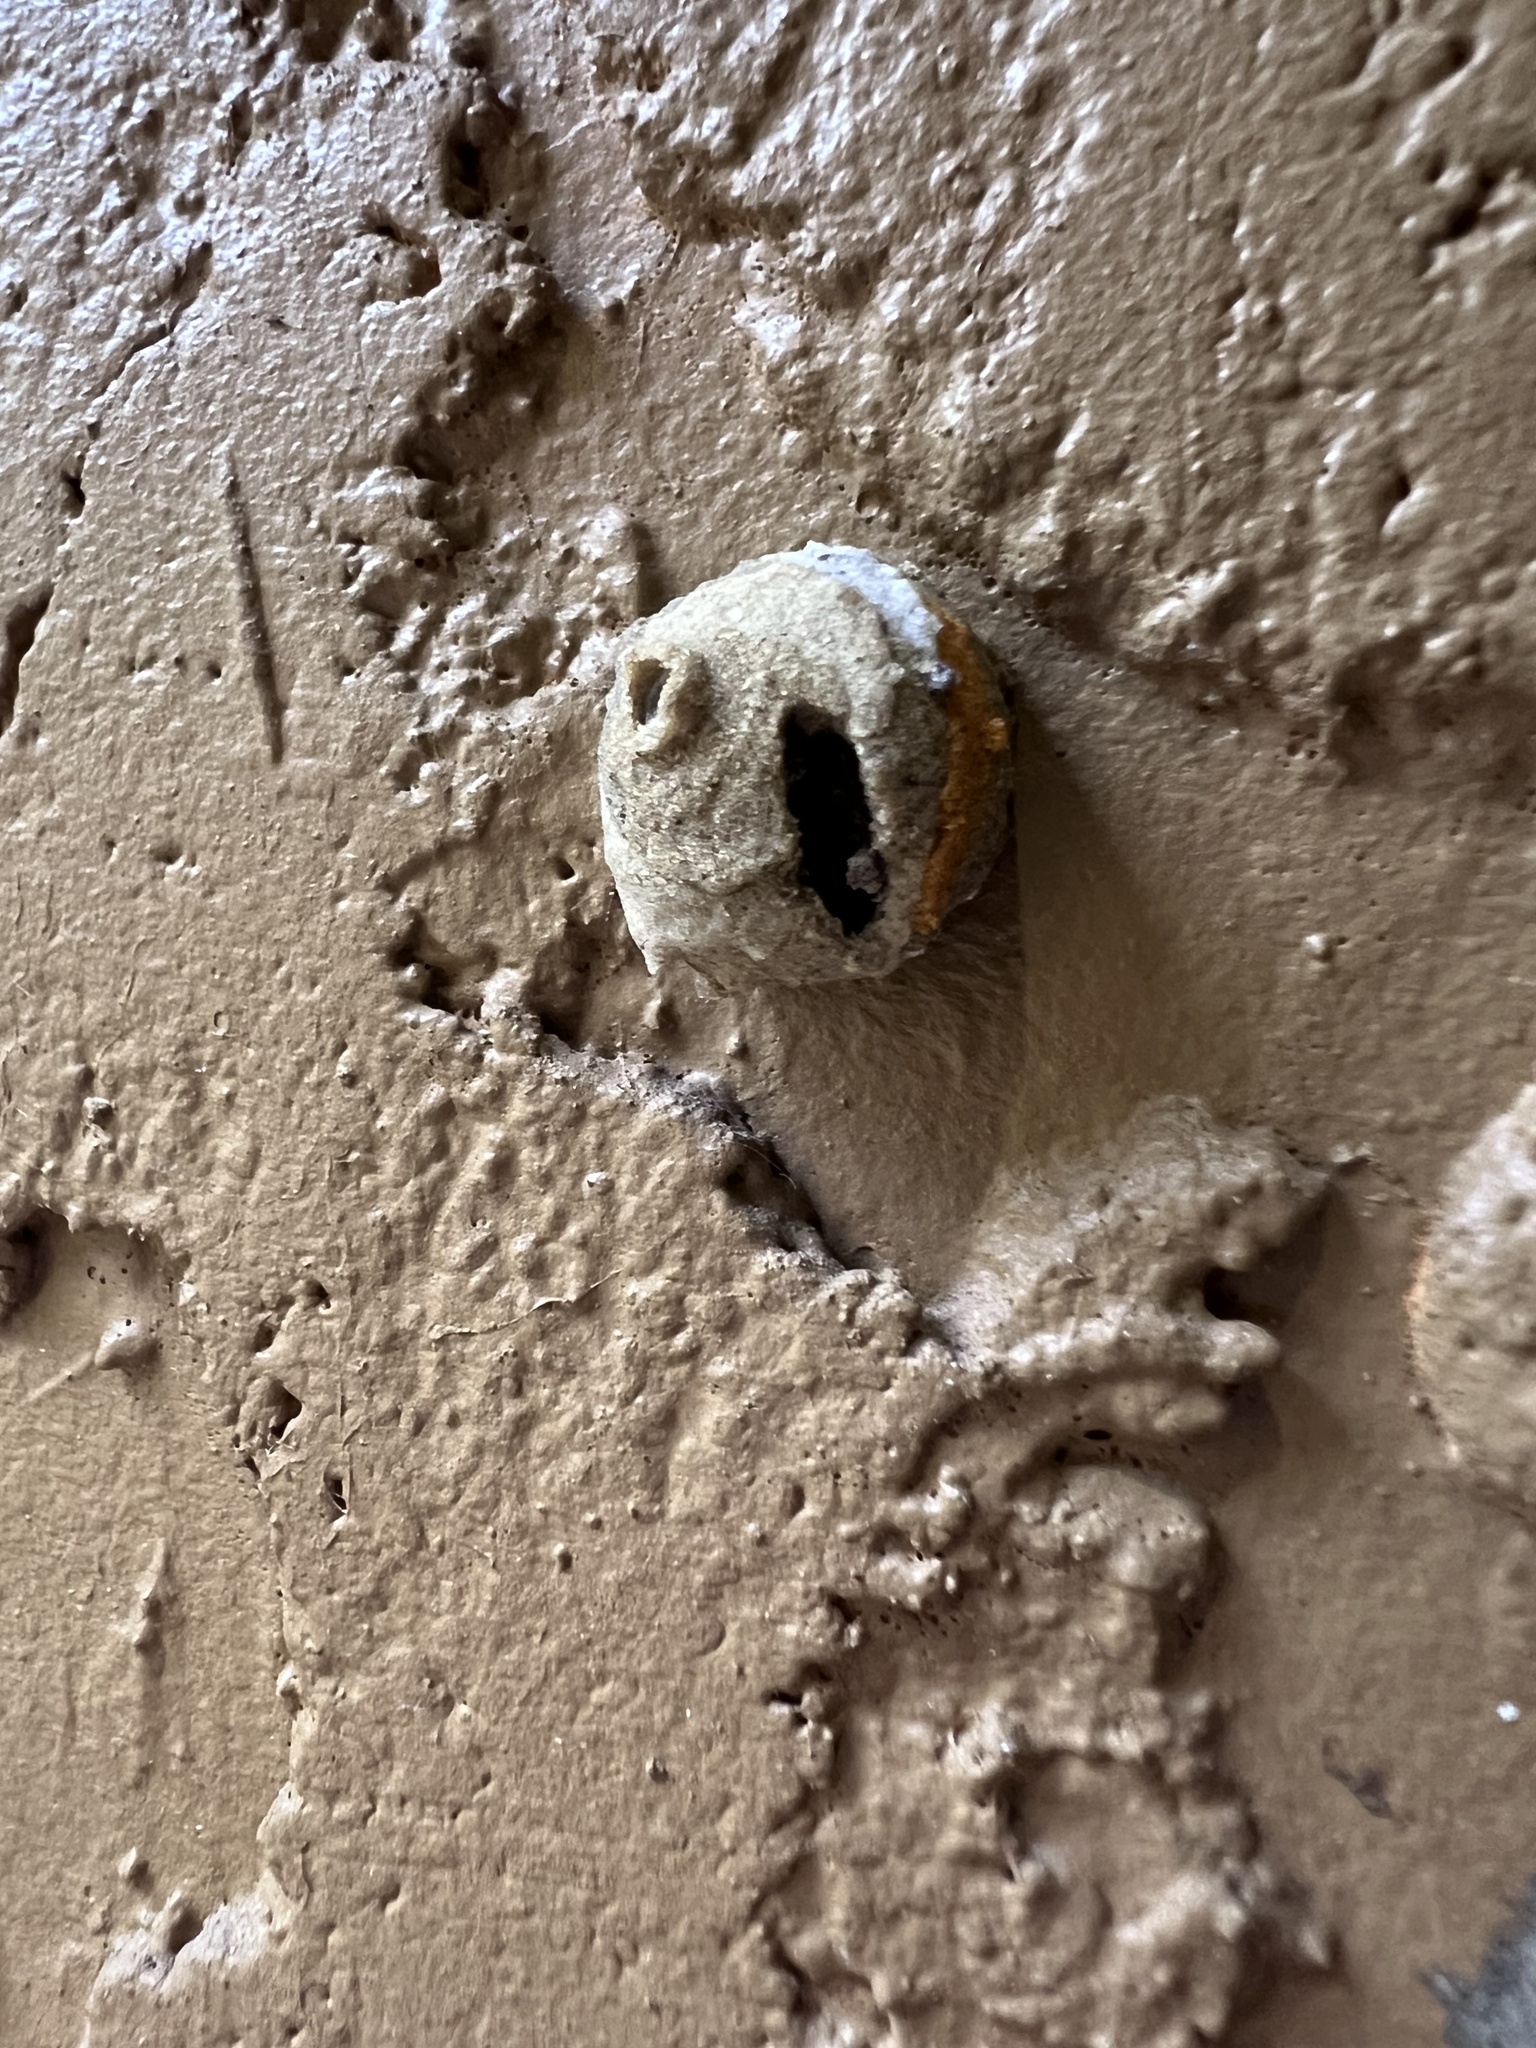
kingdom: Animalia
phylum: Arthropoda
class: Insecta
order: Hymenoptera
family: Eumenidae
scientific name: Eumenidae
